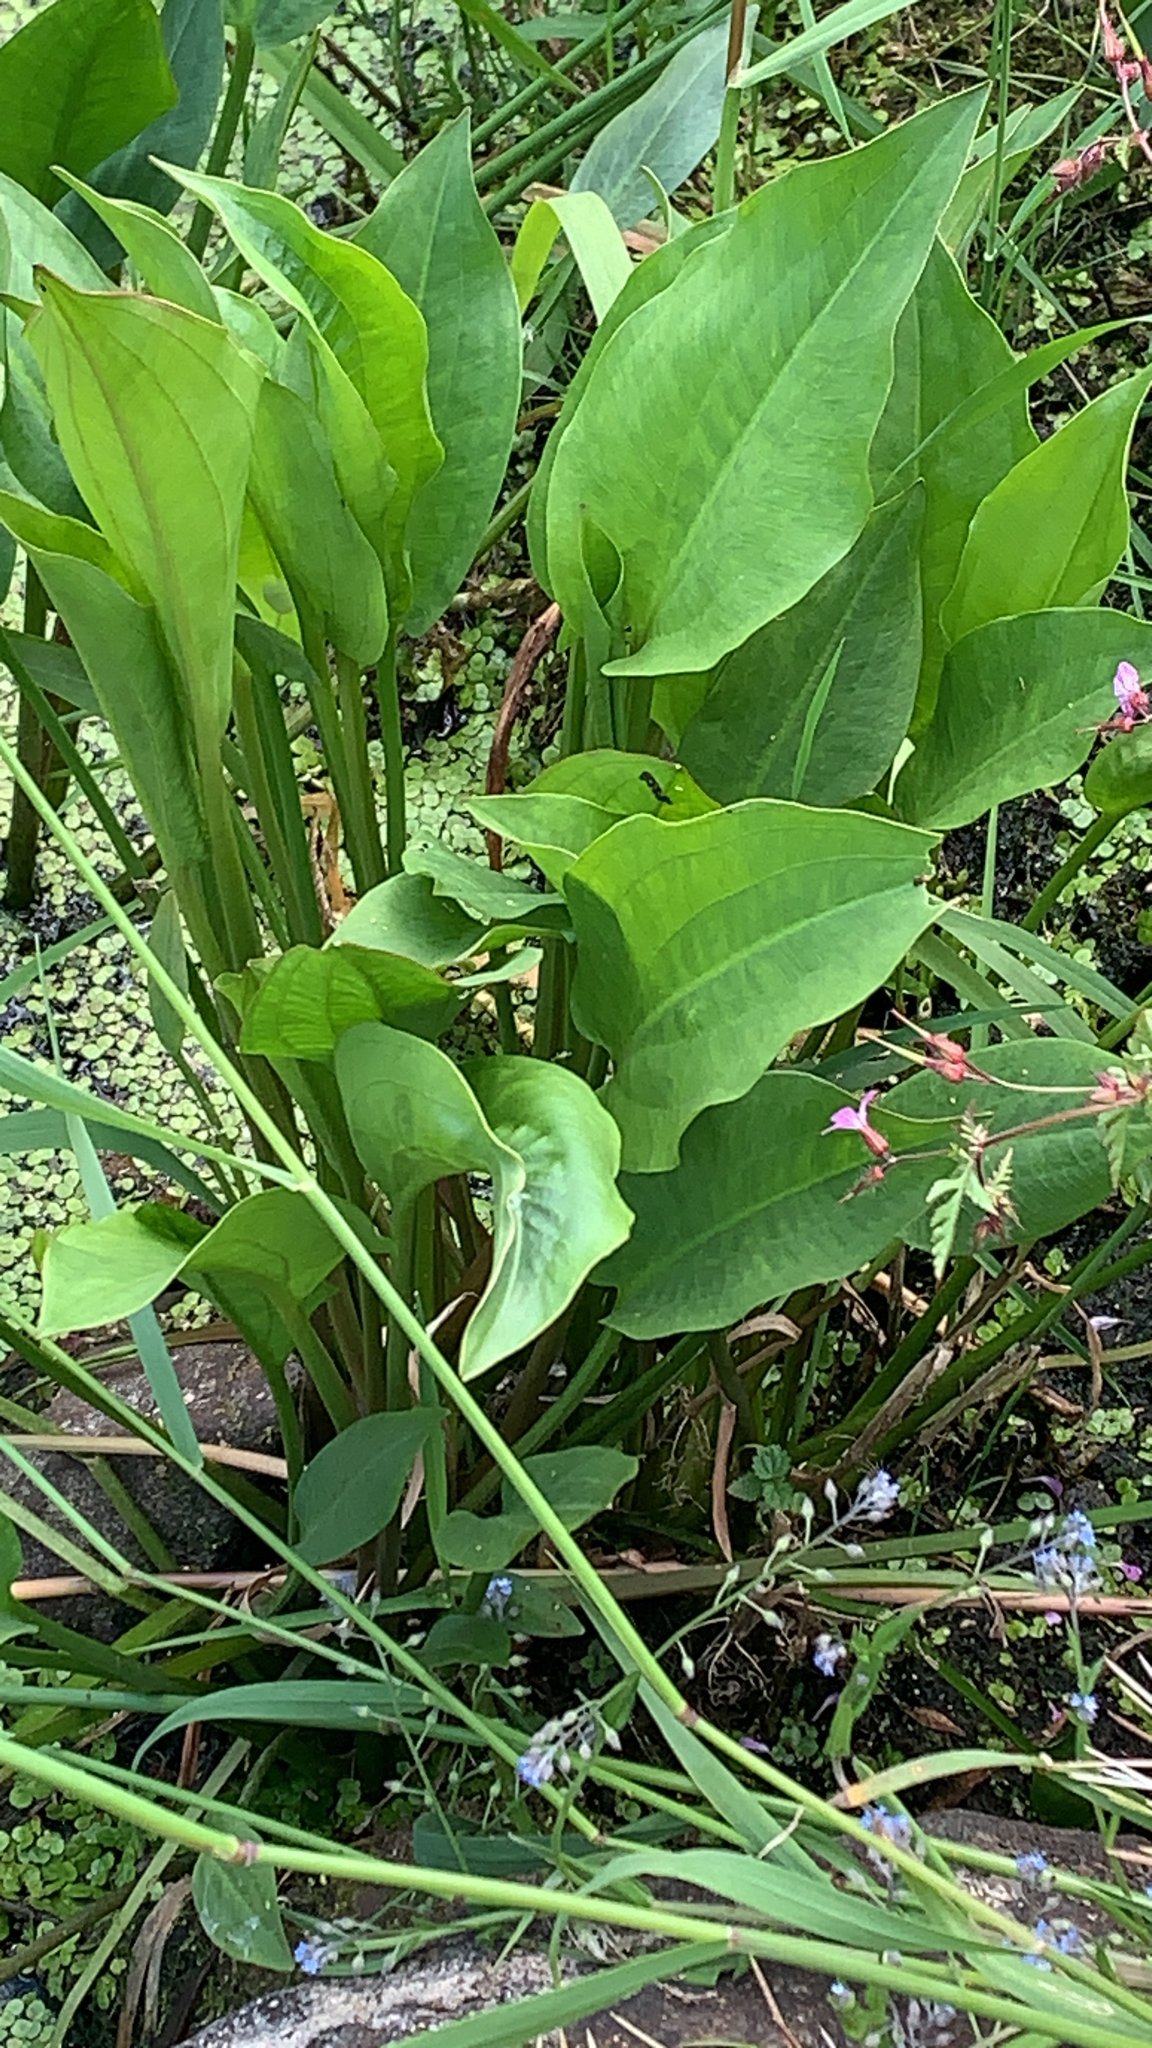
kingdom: Plantae
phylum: Tracheophyta
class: Liliopsida
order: Alismatales
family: Alismataceae
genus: Alisma
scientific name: Alisma plantago-aquatica
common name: Water-plantain
